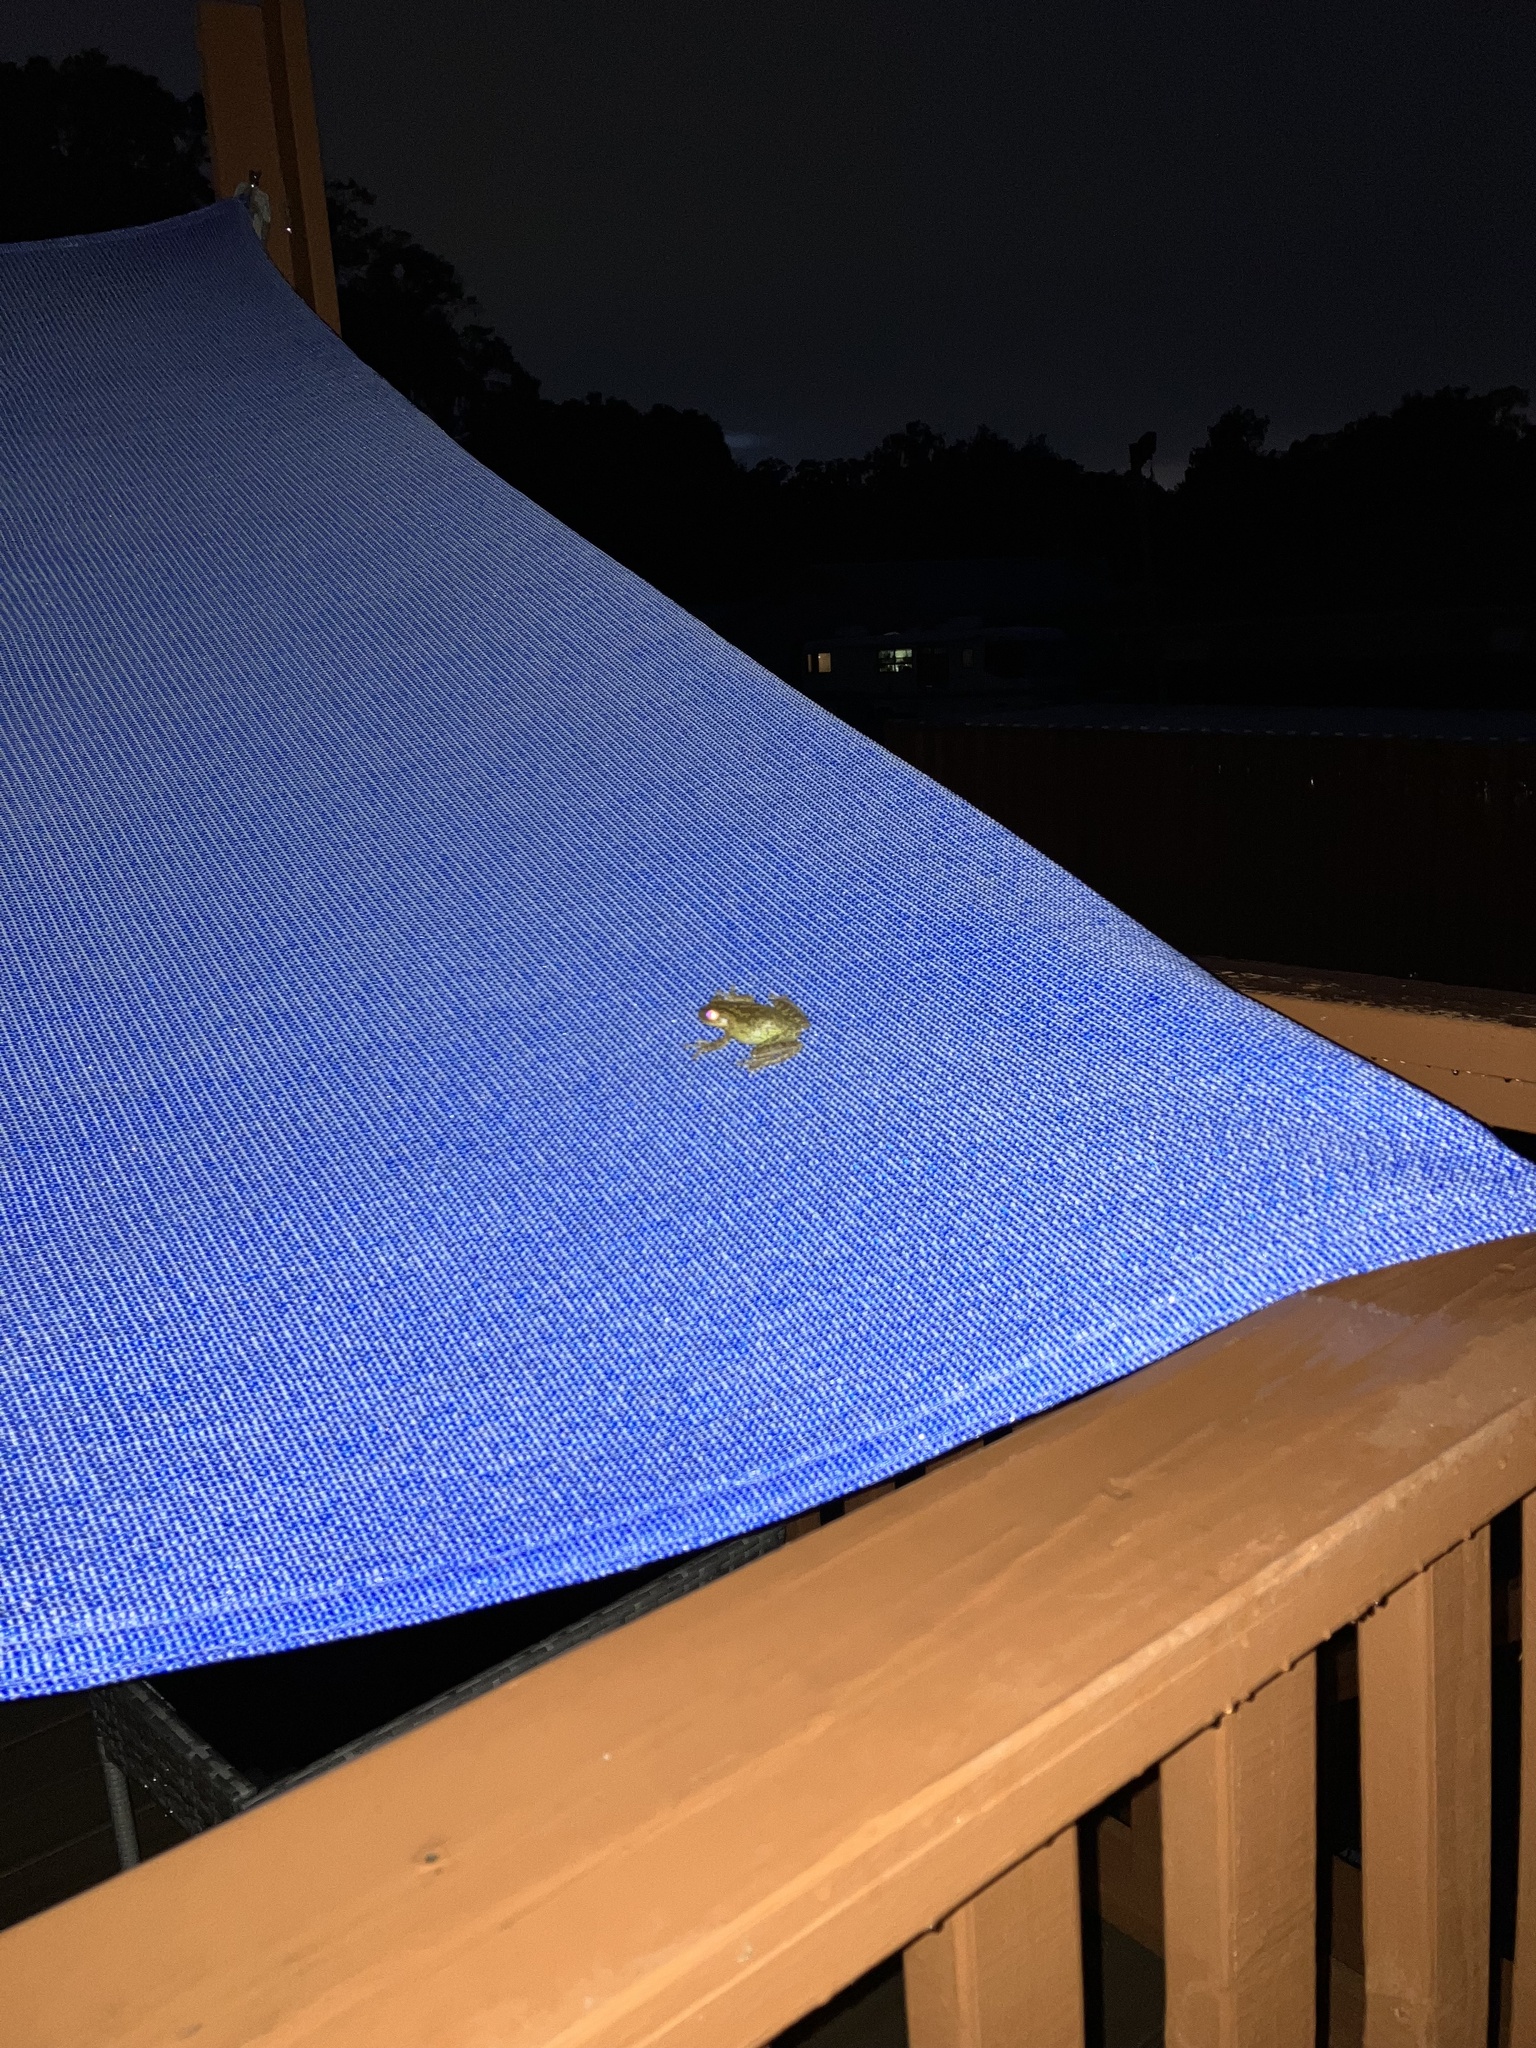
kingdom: Animalia
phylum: Chordata
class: Amphibia
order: Anura
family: Hylidae
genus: Osteopilus
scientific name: Osteopilus septentrionalis
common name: Cuban treefrog
